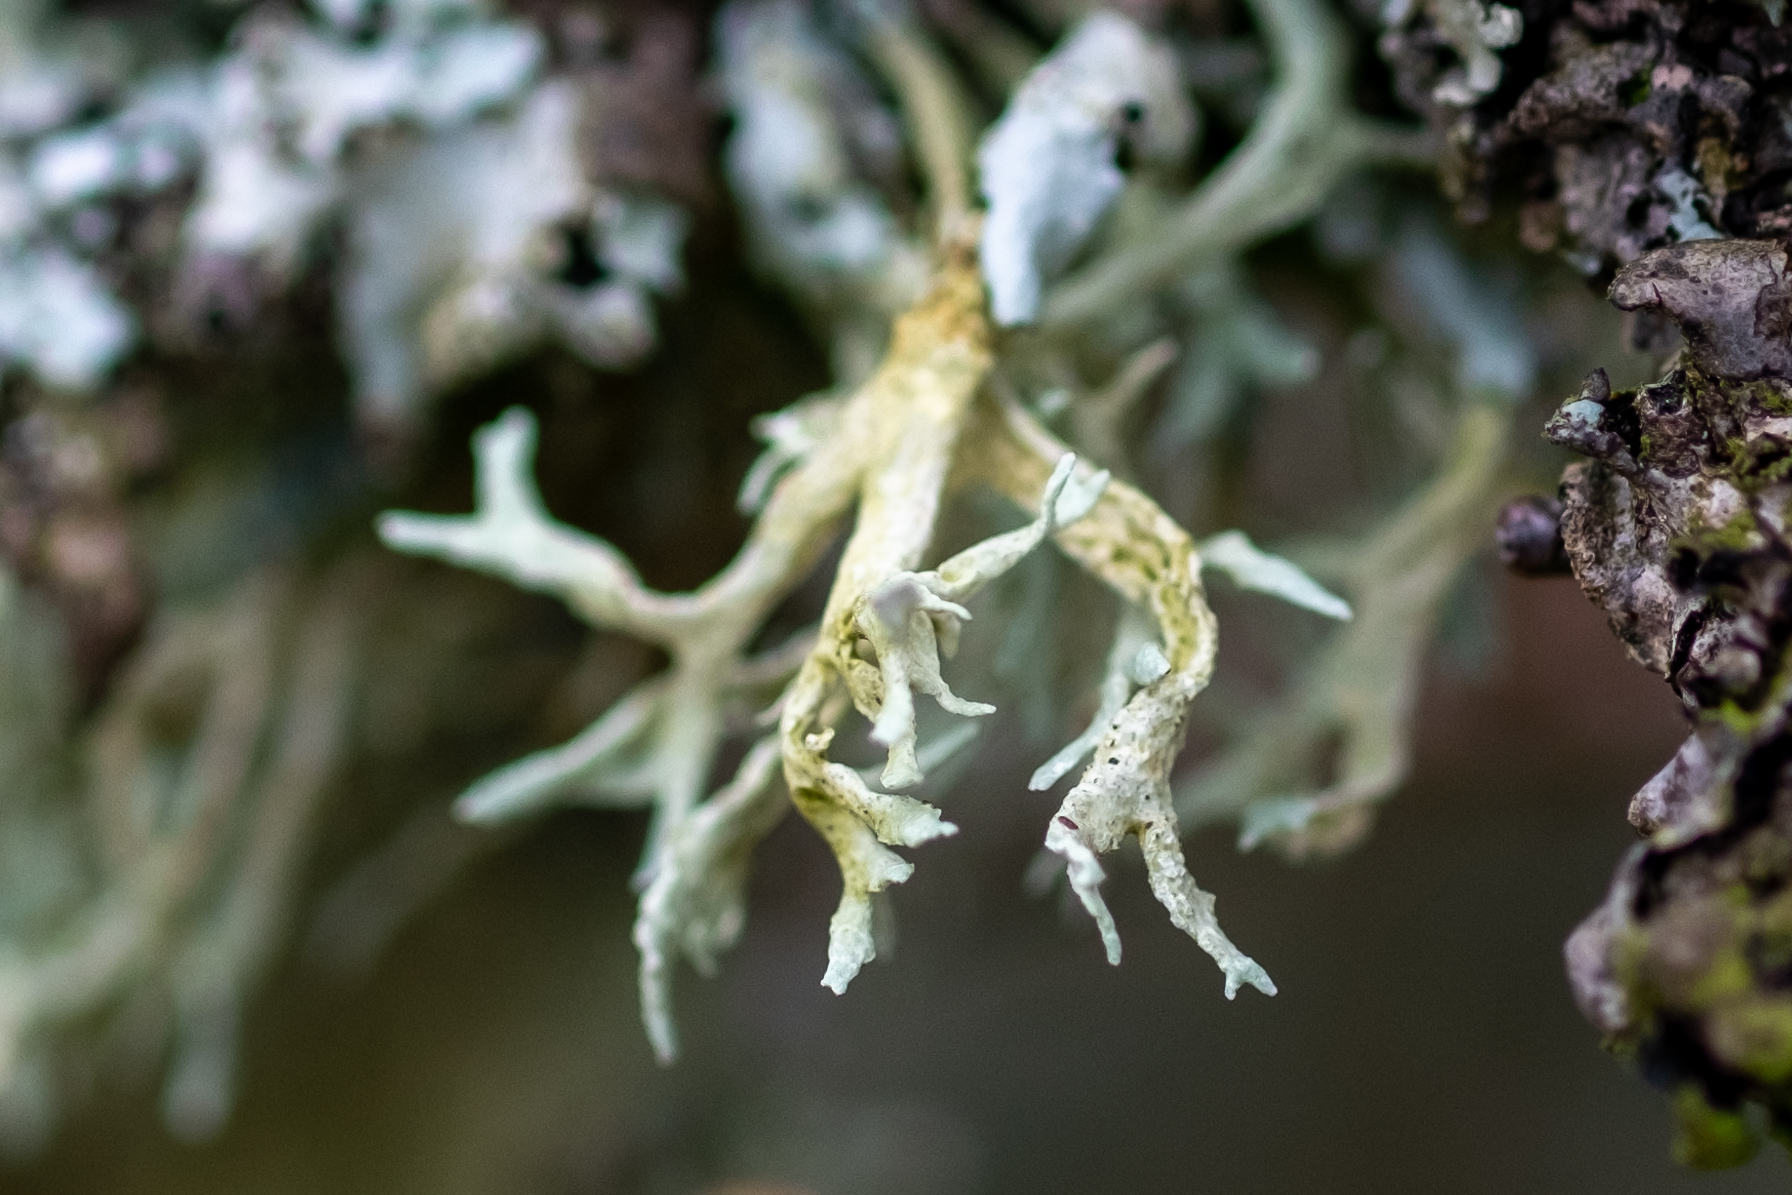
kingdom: Fungi
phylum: Ascomycota
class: Lecanoromycetes
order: Lecanorales
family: Parmeliaceae
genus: Evernia
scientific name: Evernia prunastri
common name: Oak moss
